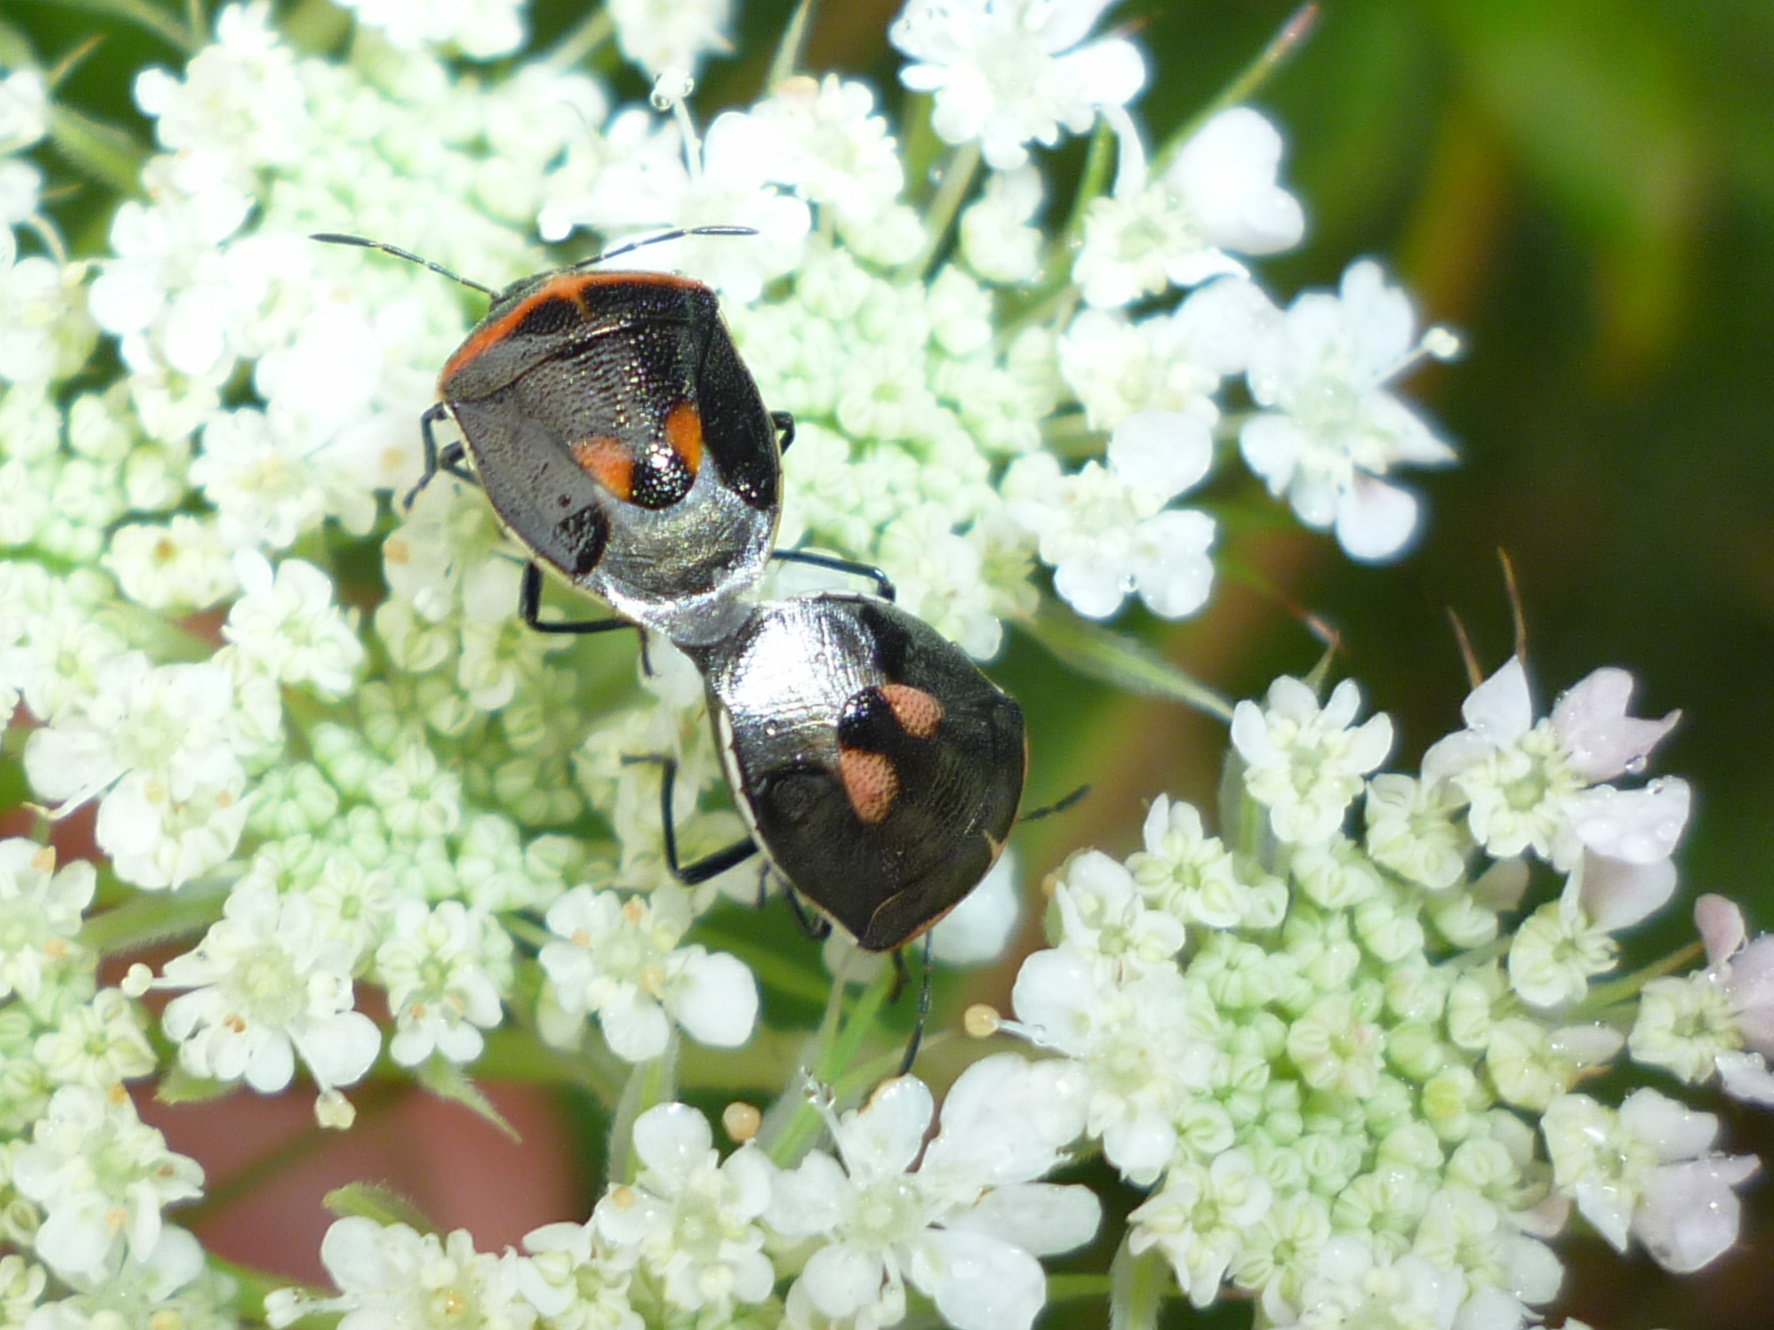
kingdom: Animalia
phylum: Arthropoda
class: Insecta
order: Hemiptera
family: Pentatomidae
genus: Cosmopepla
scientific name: Cosmopepla lintneriana
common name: Twice-stabbed stink bug
